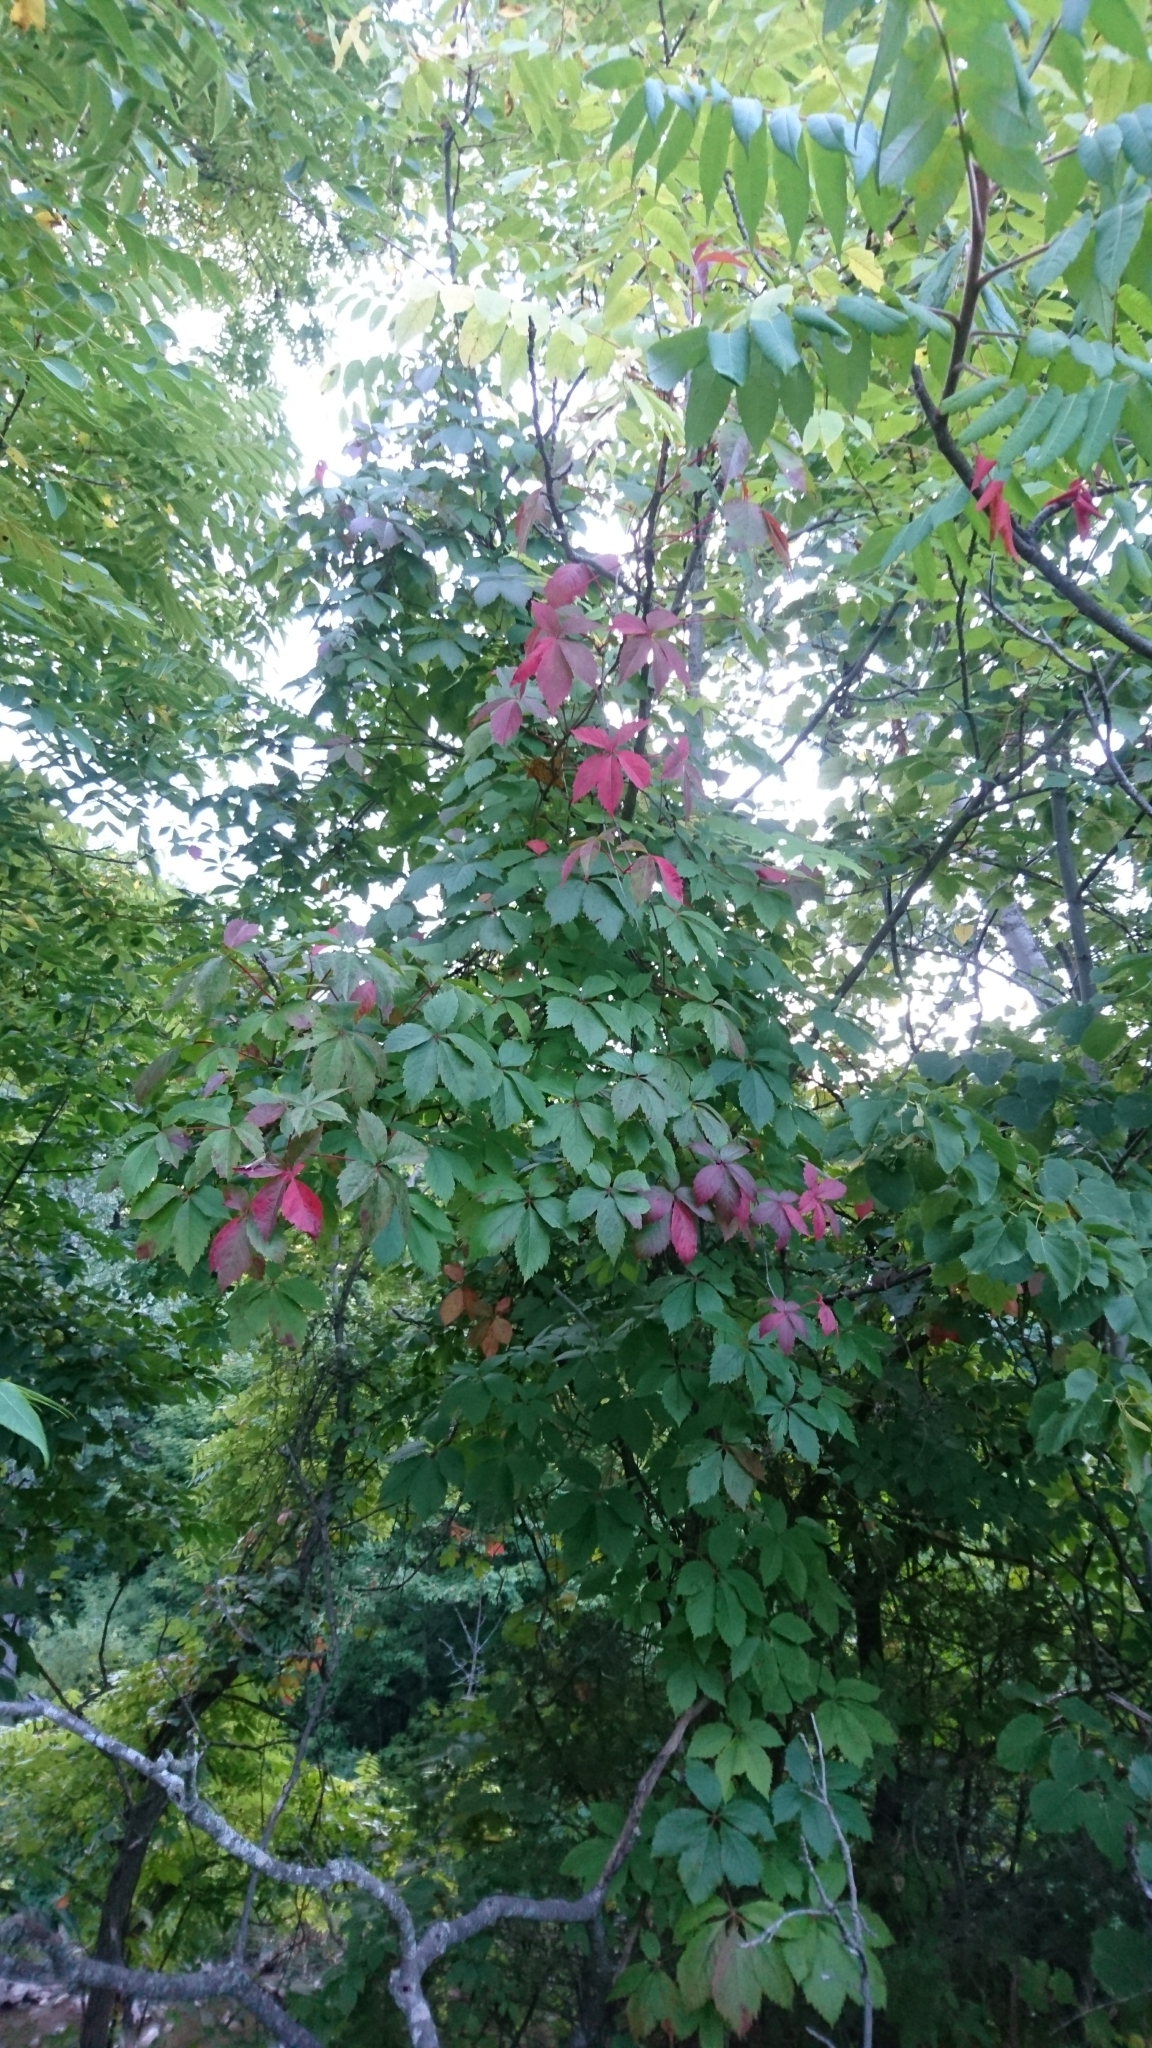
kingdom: Plantae
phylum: Tracheophyta
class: Magnoliopsida
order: Vitales
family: Vitaceae
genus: Parthenocissus
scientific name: Parthenocissus quinquefolia
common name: Virginia-creeper
